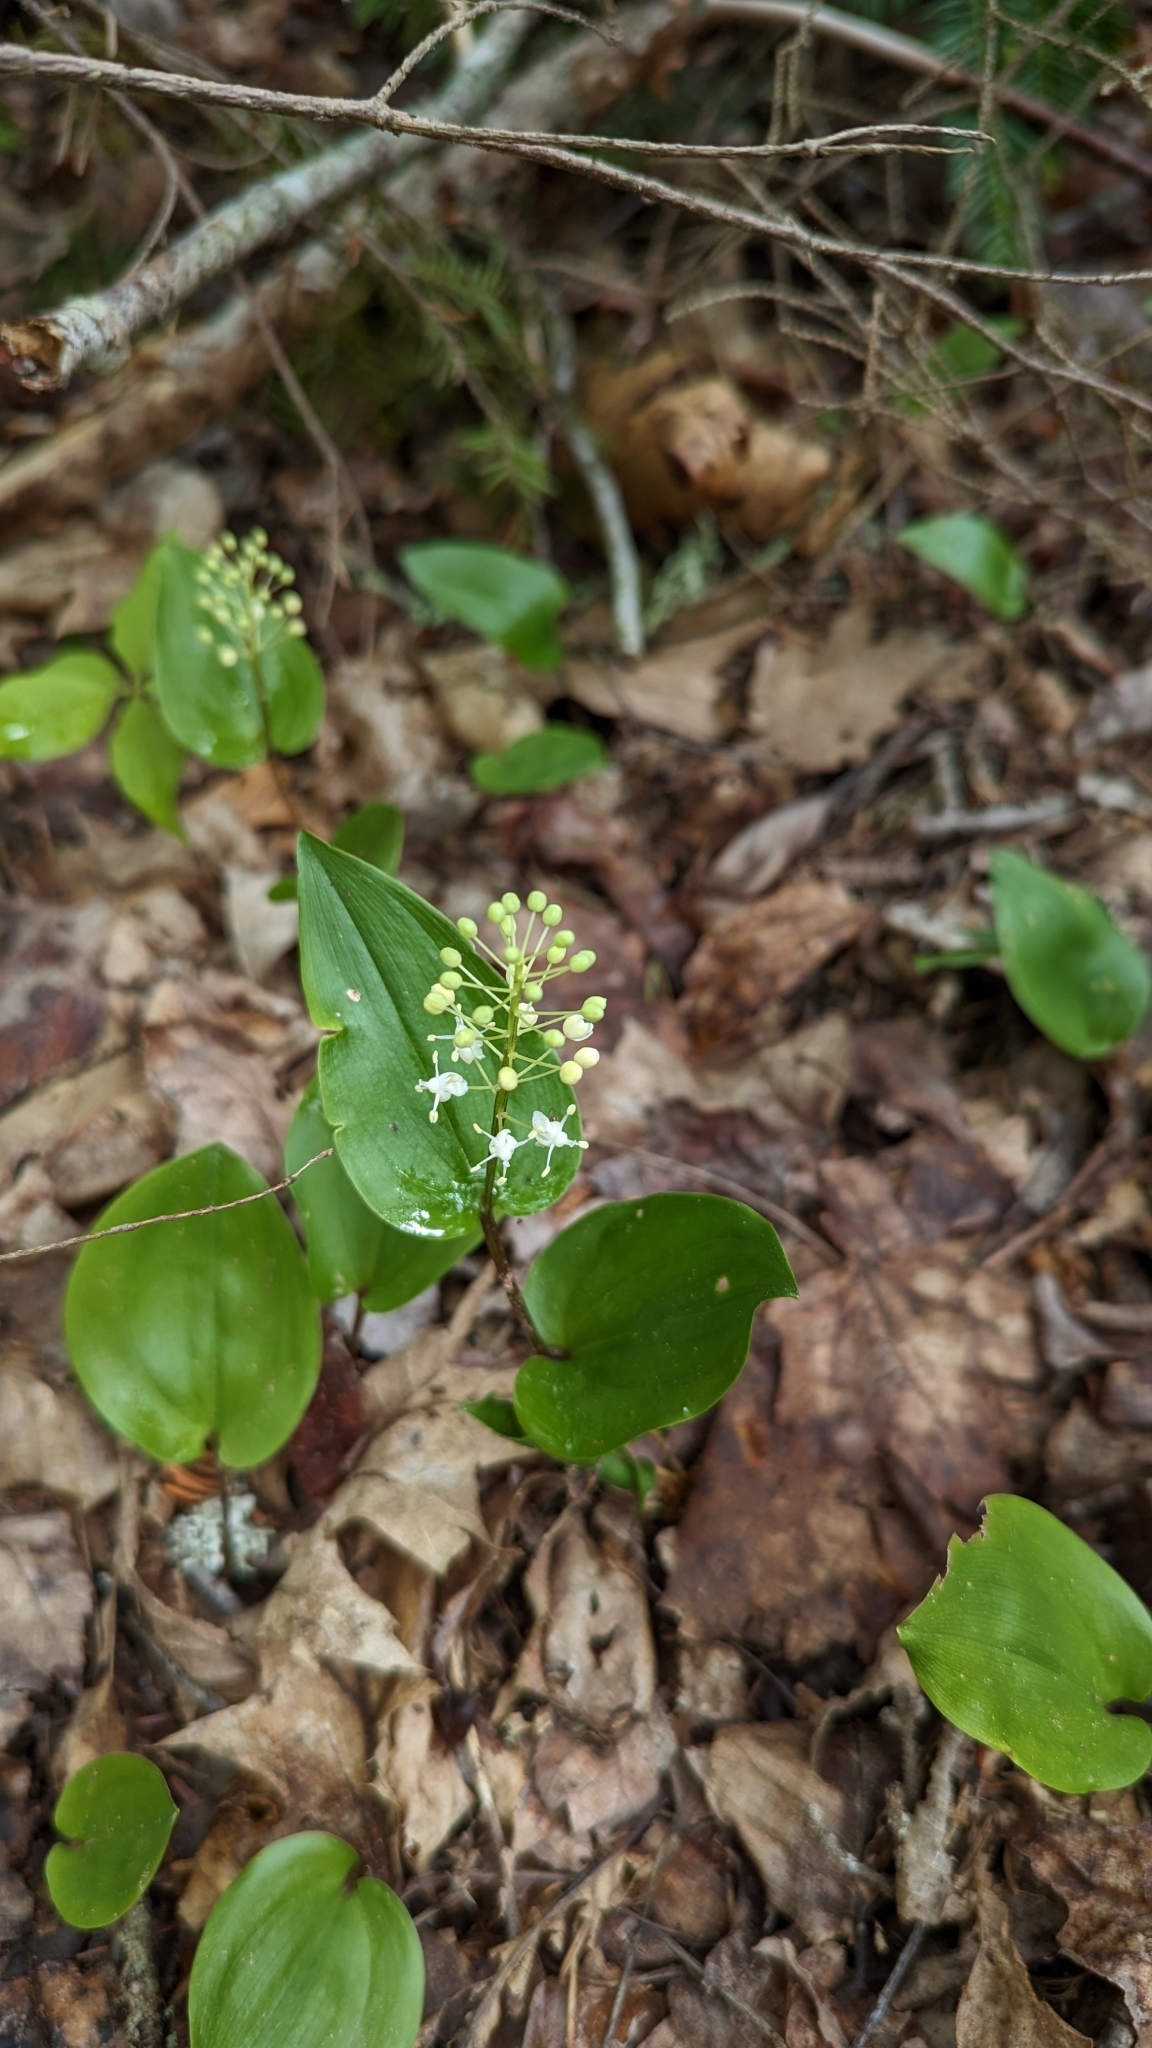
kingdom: Plantae
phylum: Tracheophyta
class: Liliopsida
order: Asparagales
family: Asparagaceae
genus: Maianthemum
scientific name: Maianthemum canadense
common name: False lily-of-the-valley
